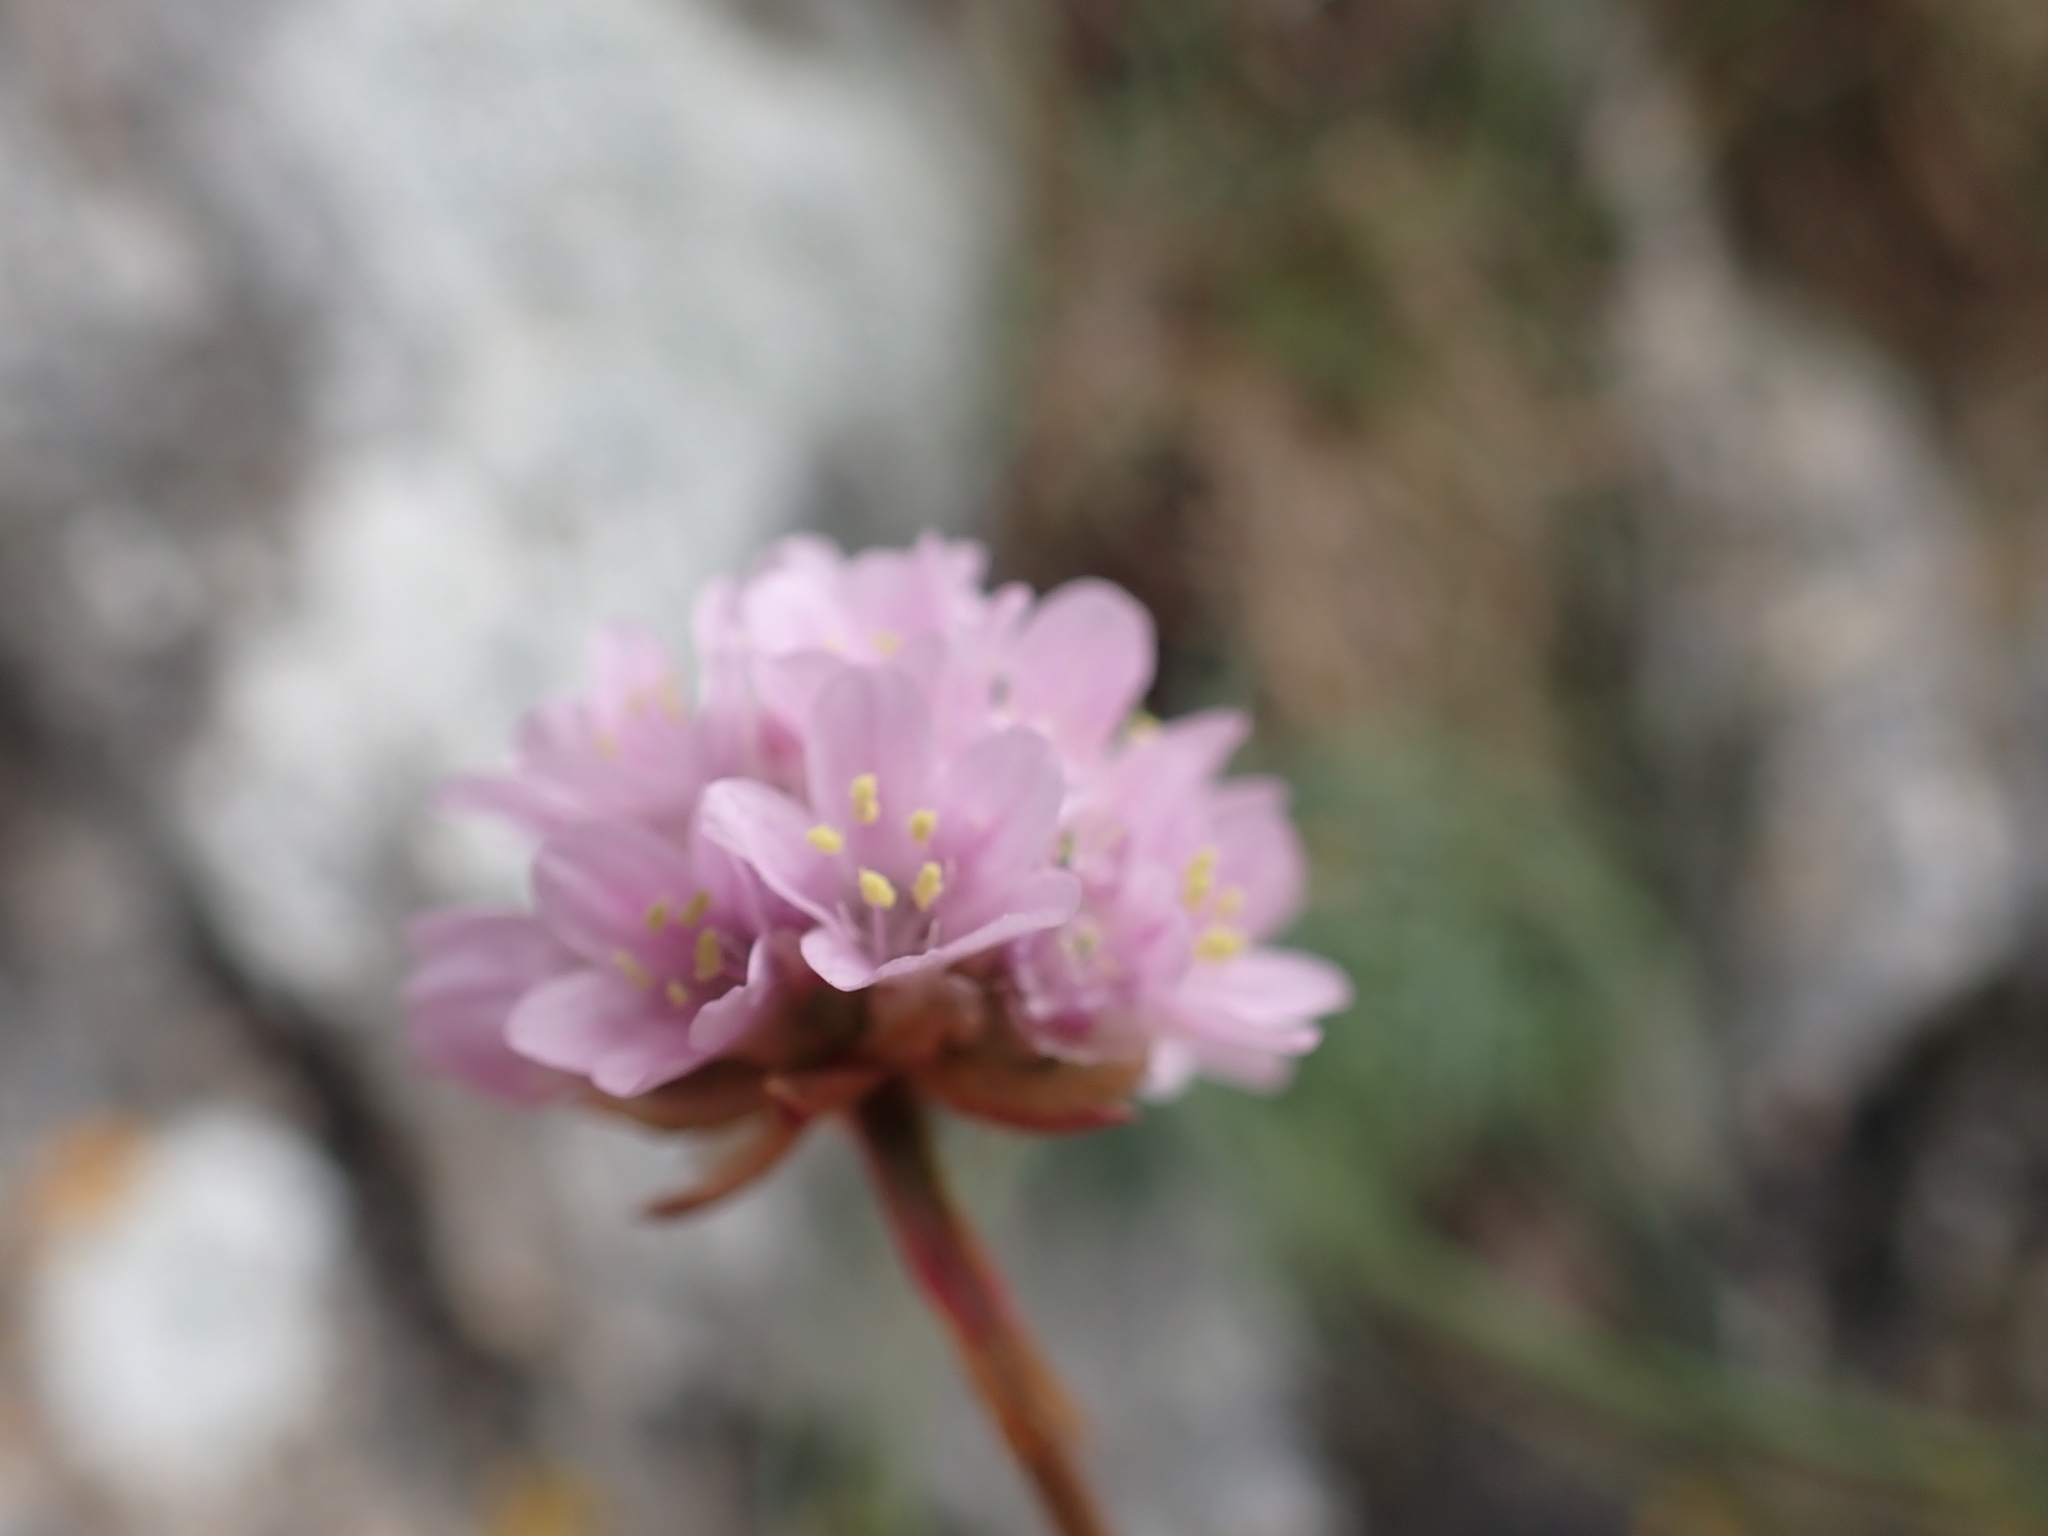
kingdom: Plantae
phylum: Tracheophyta
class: Magnoliopsida
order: Caryophyllales
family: Plumbaginaceae
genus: Armeria
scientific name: Armeria maritima
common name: Thrift
